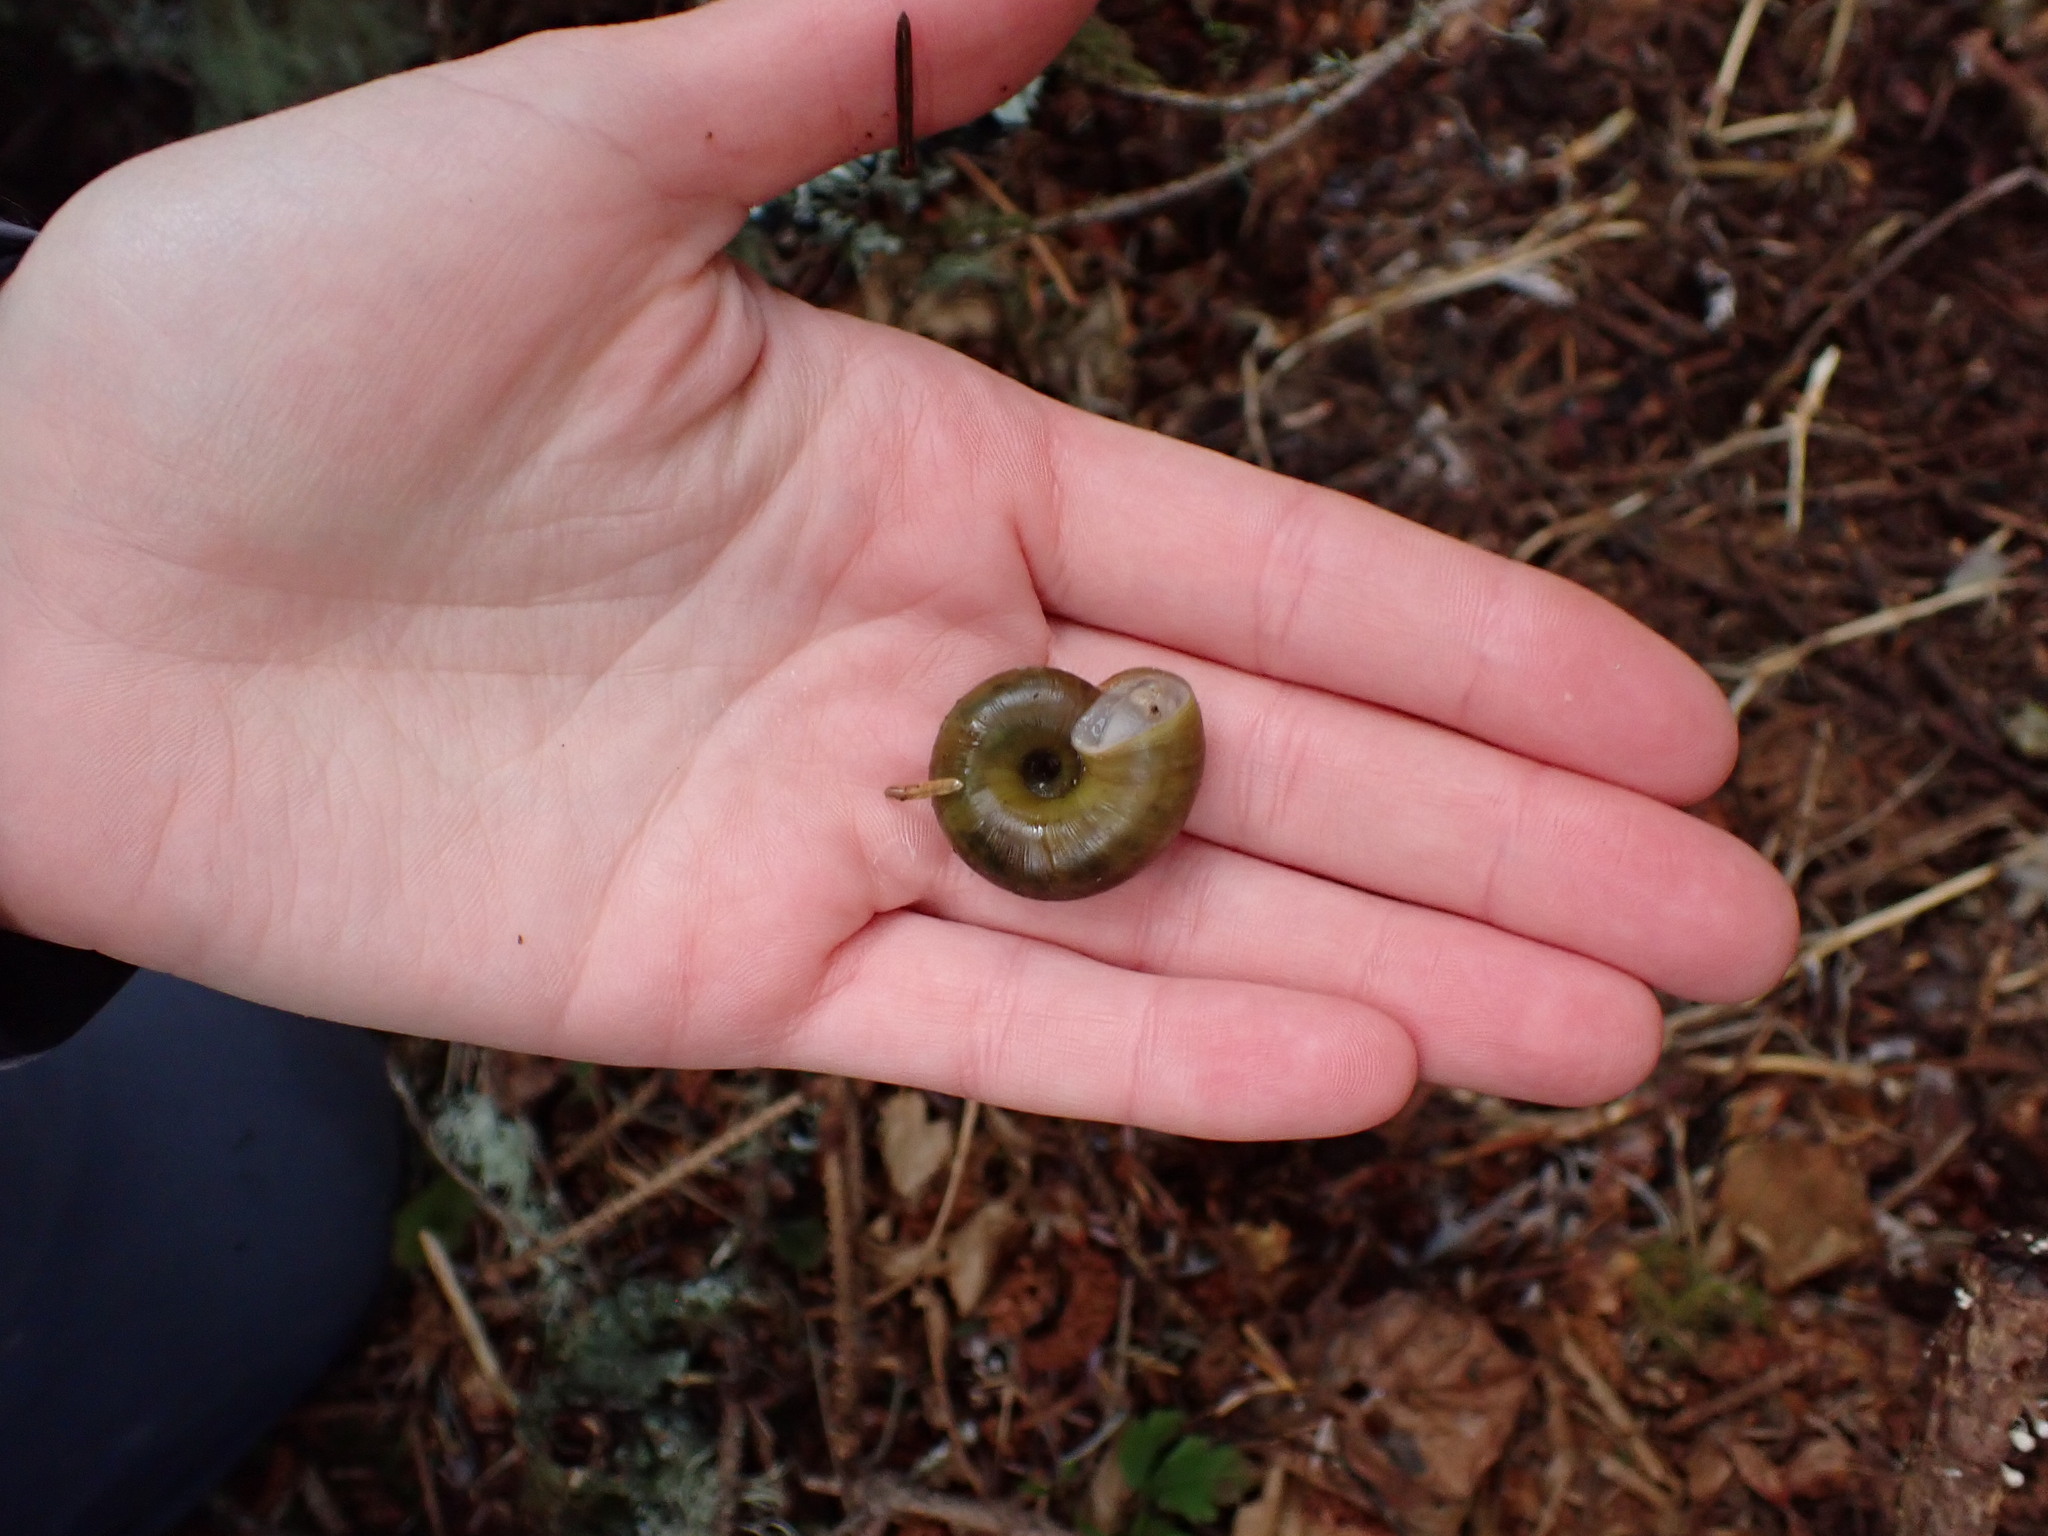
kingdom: Animalia
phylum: Mollusca
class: Gastropoda
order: Stylommatophora
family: Haplotrematidae
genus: Haplotrema
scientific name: Haplotrema vancouverense
